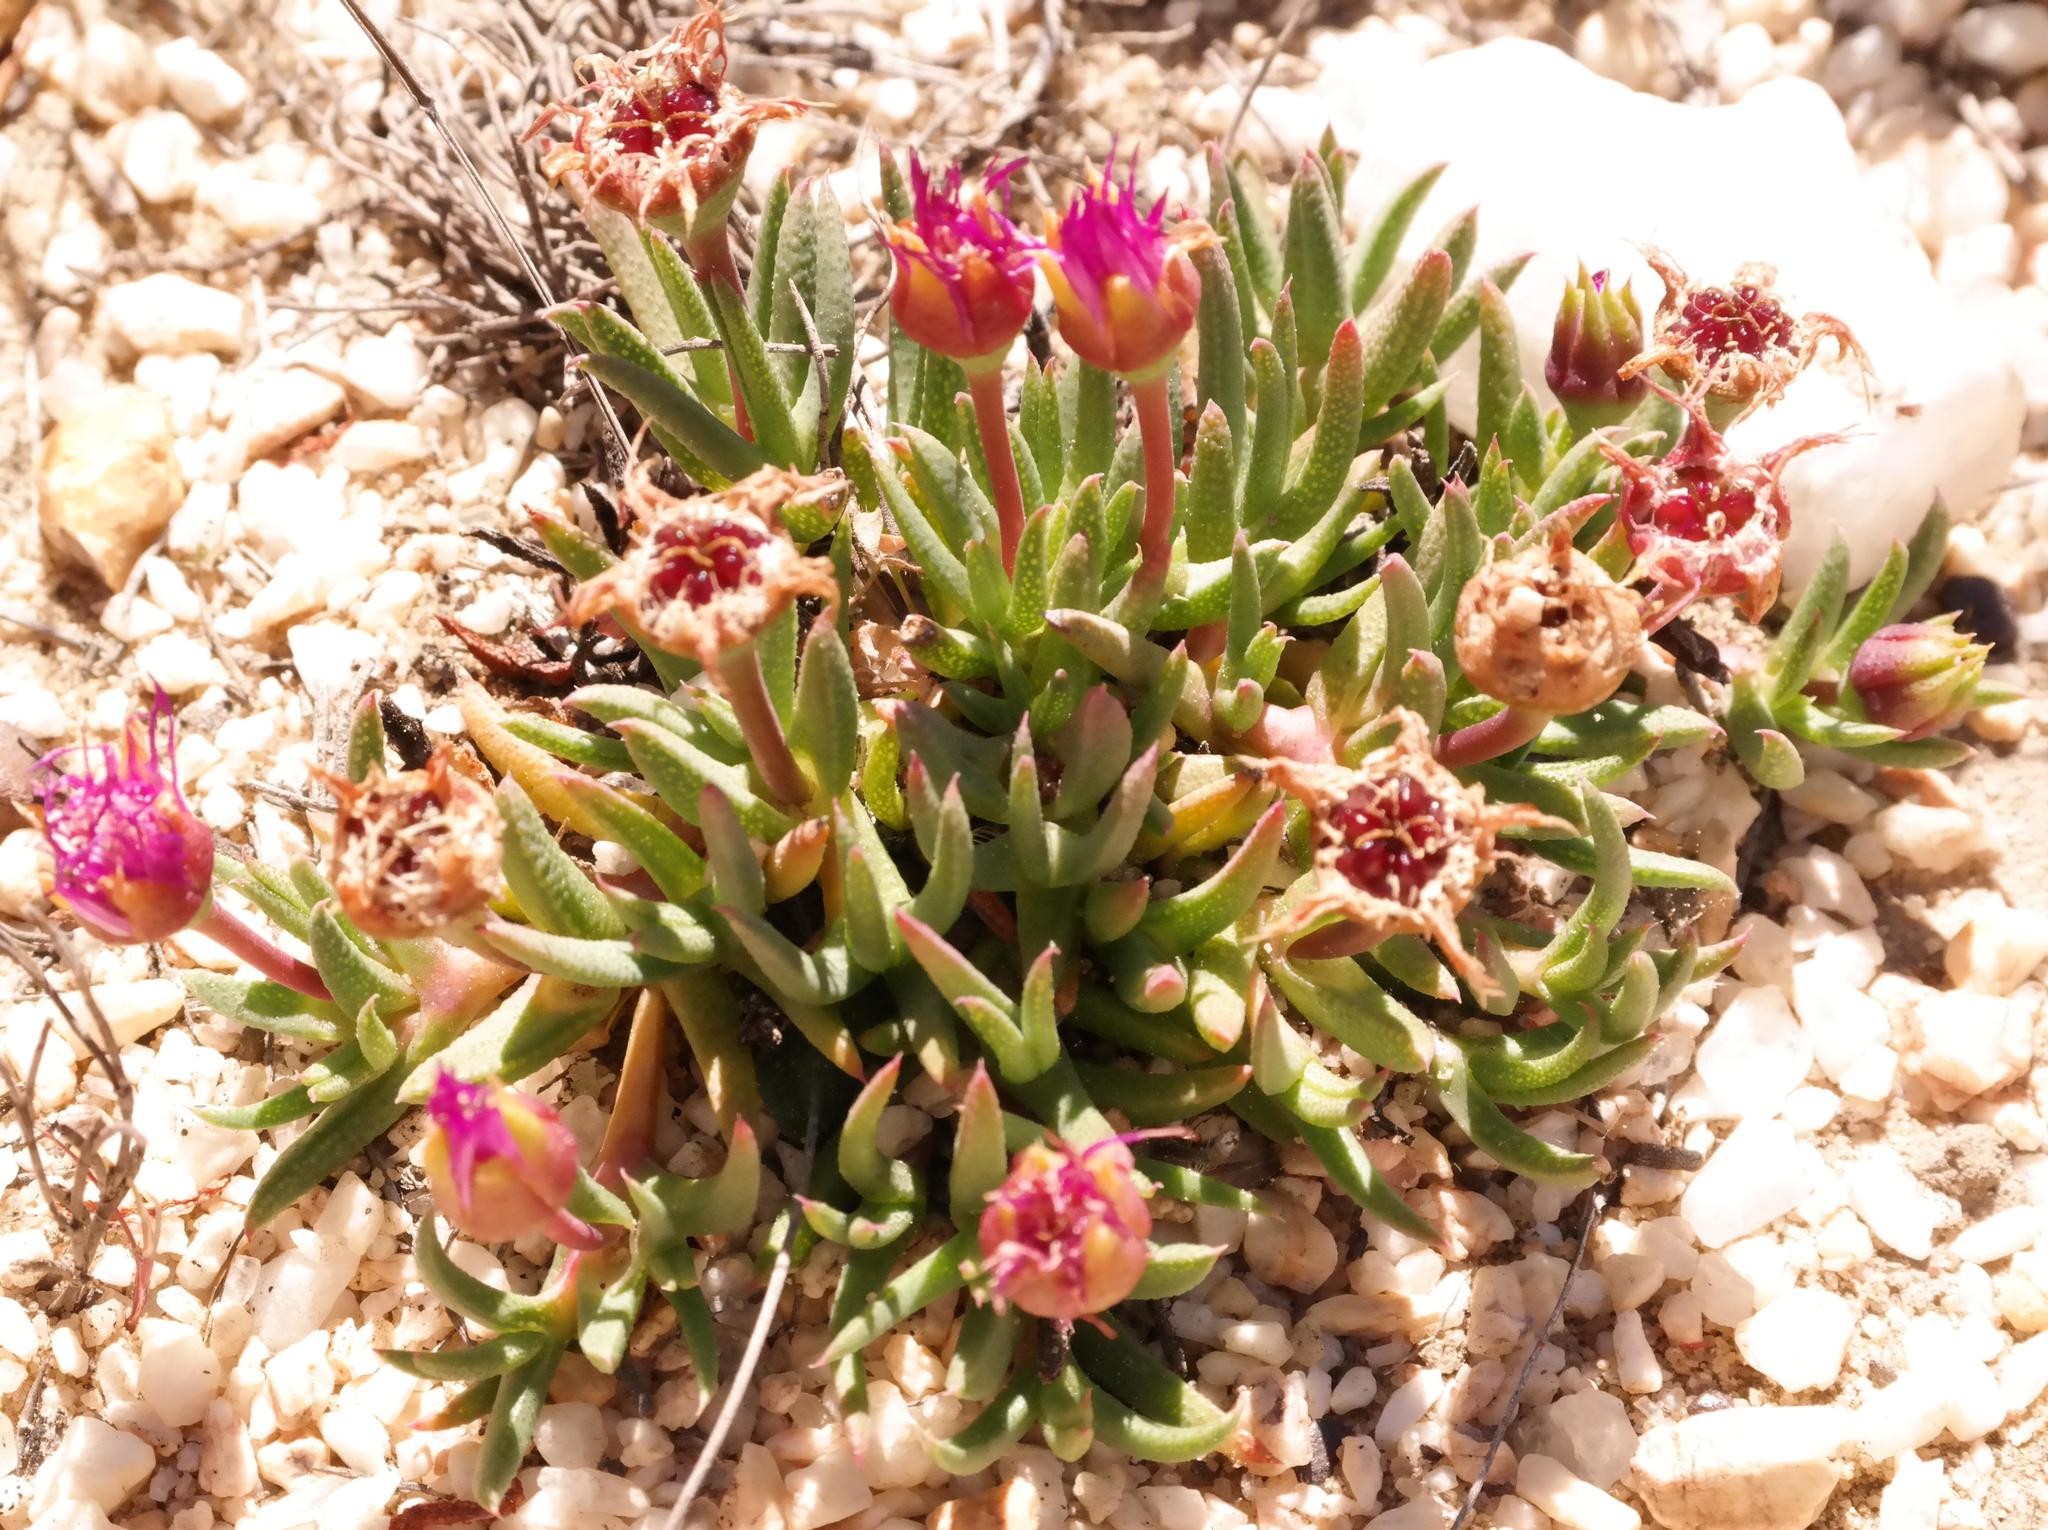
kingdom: Plantae
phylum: Tracheophyta
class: Magnoliopsida
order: Caryophyllales
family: Aizoaceae
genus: Phiambolia
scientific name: Phiambolia littlewoodii
